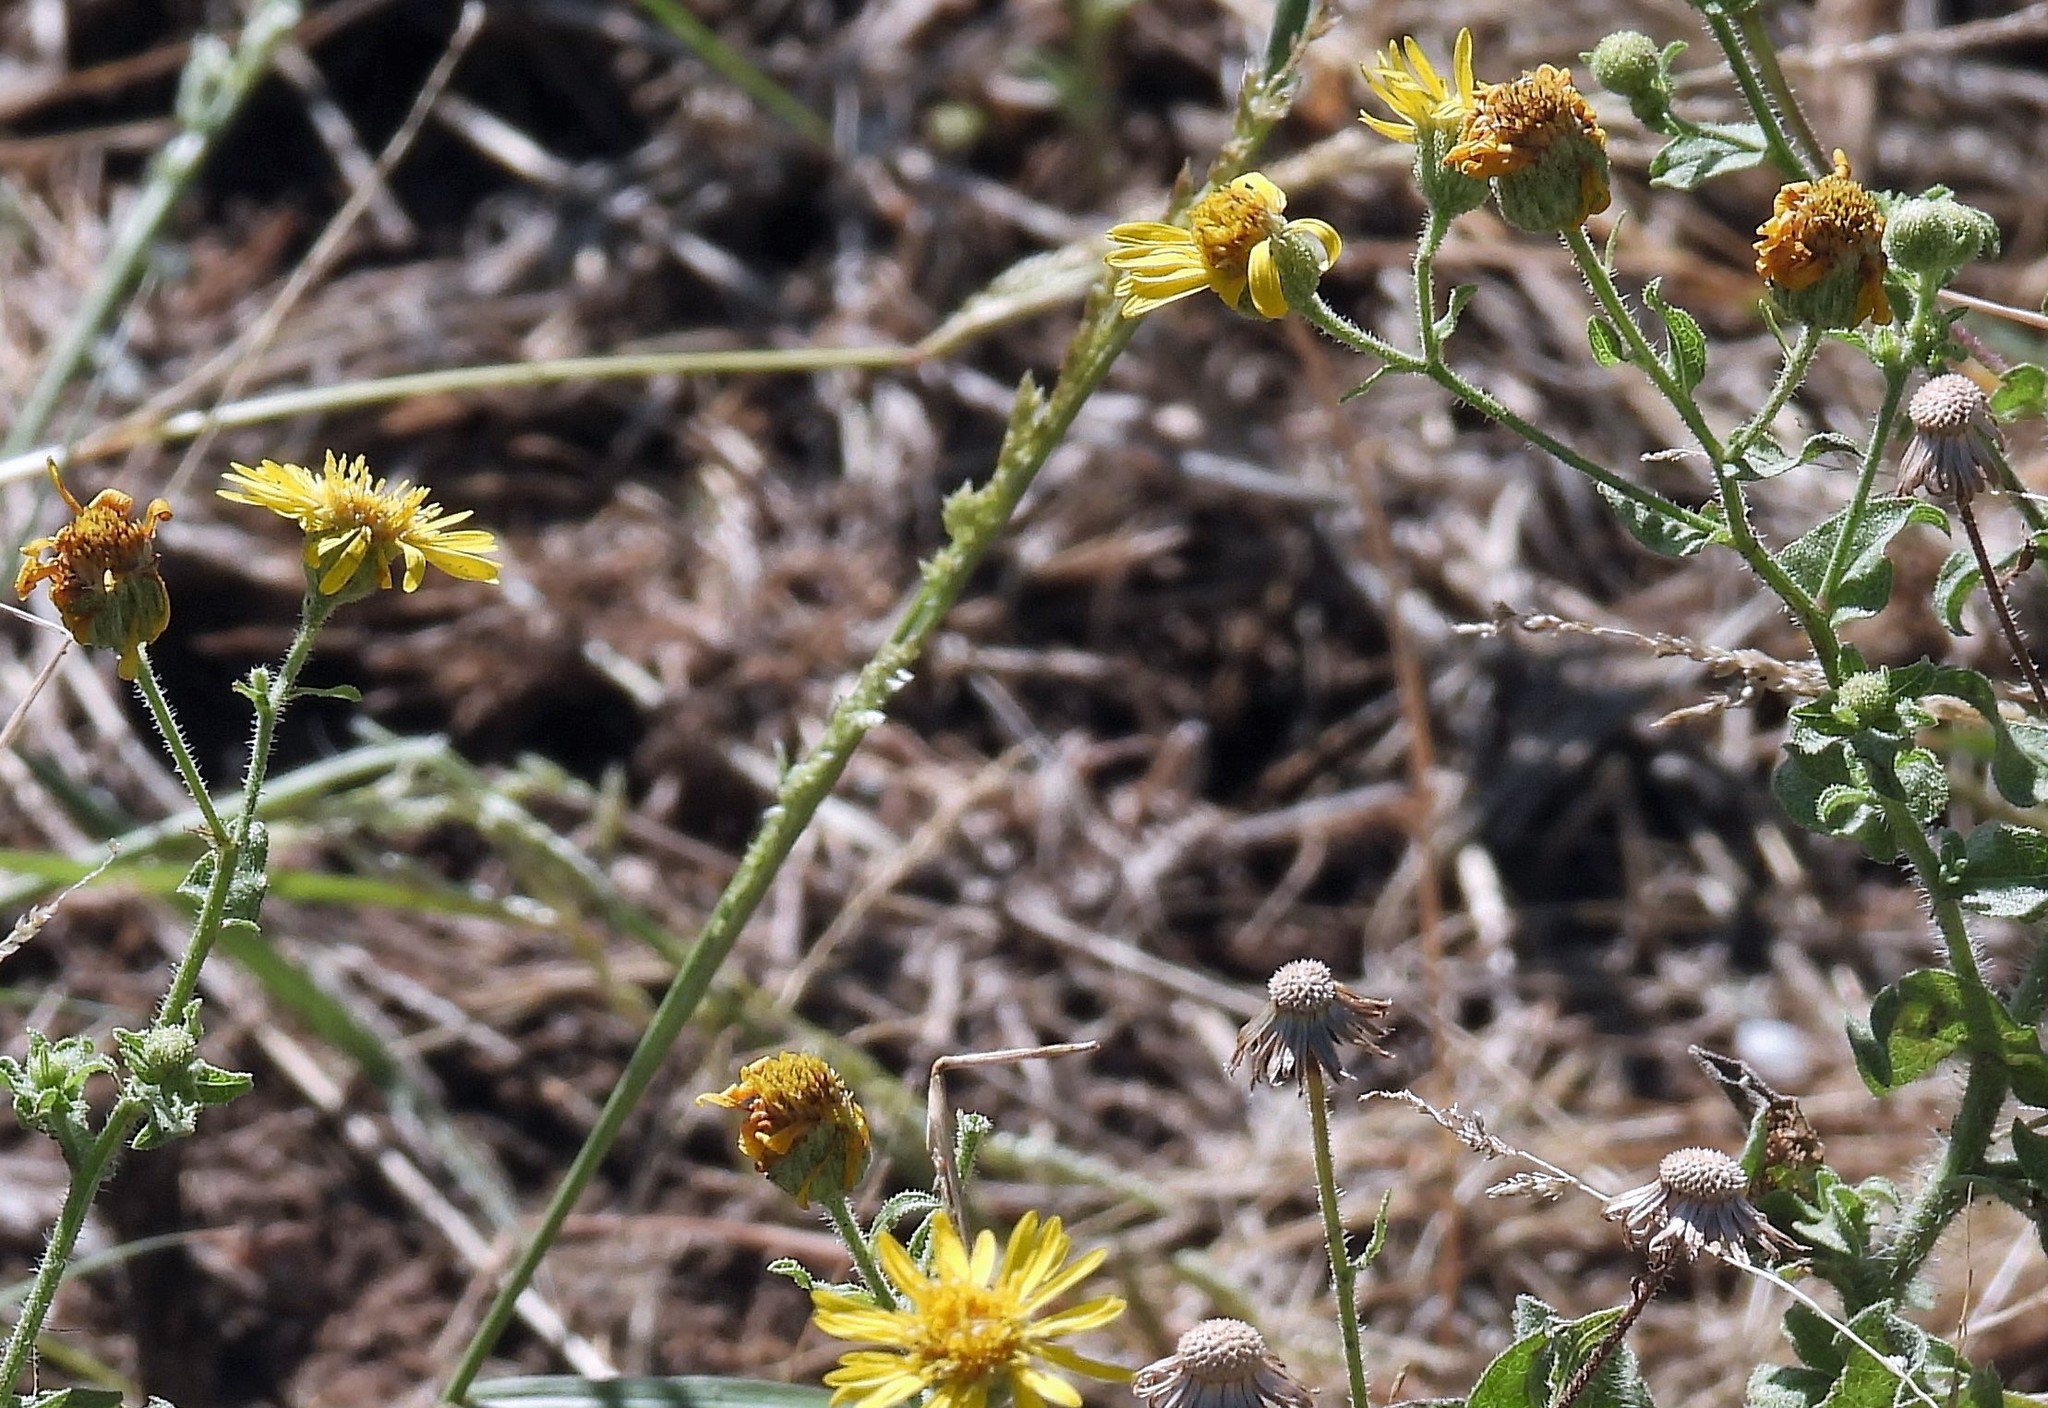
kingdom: Plantae
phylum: Tracheophyta
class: Magnoliopsida
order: Asterales
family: Asteraceae
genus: Heterotheca
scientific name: Heterotheca subaxillaris
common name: Camphorweed
